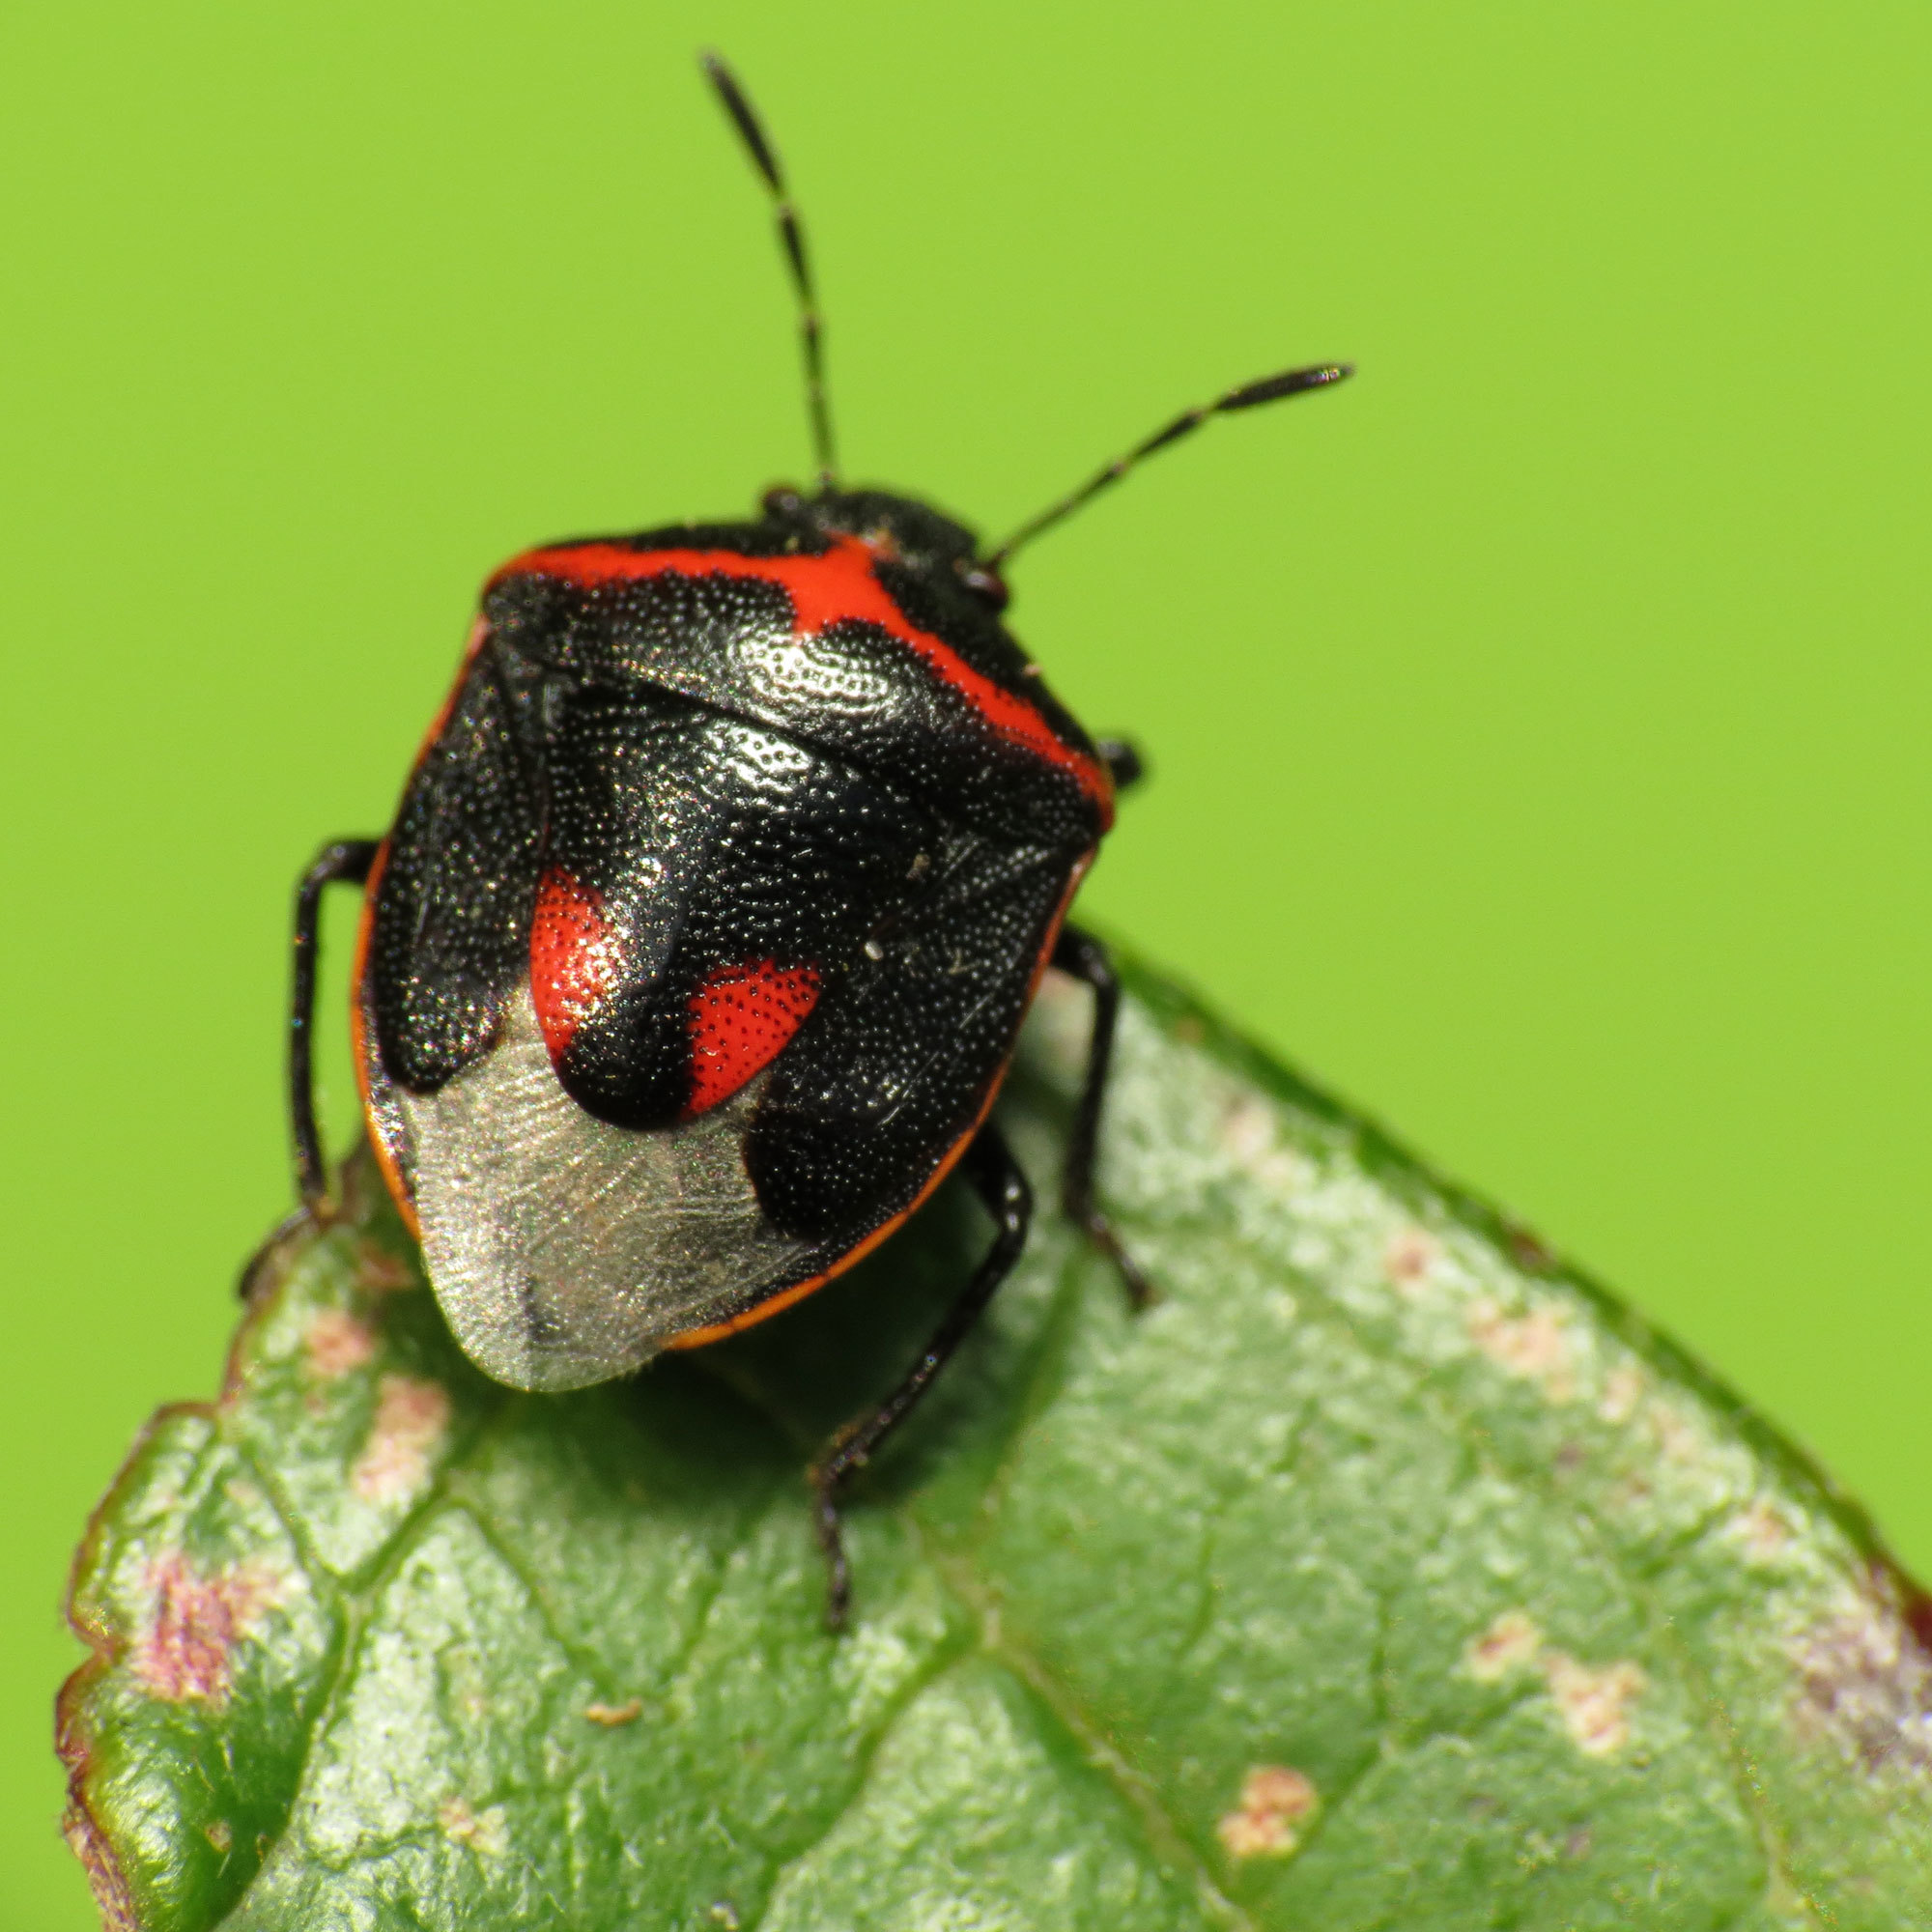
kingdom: Animalia
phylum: Arthropoda
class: Insecta
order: Hemiptera
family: Pentatomidae
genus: Cosmopepla
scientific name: Cosmopepla lintneriana
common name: Twice-stabbed stink bug
